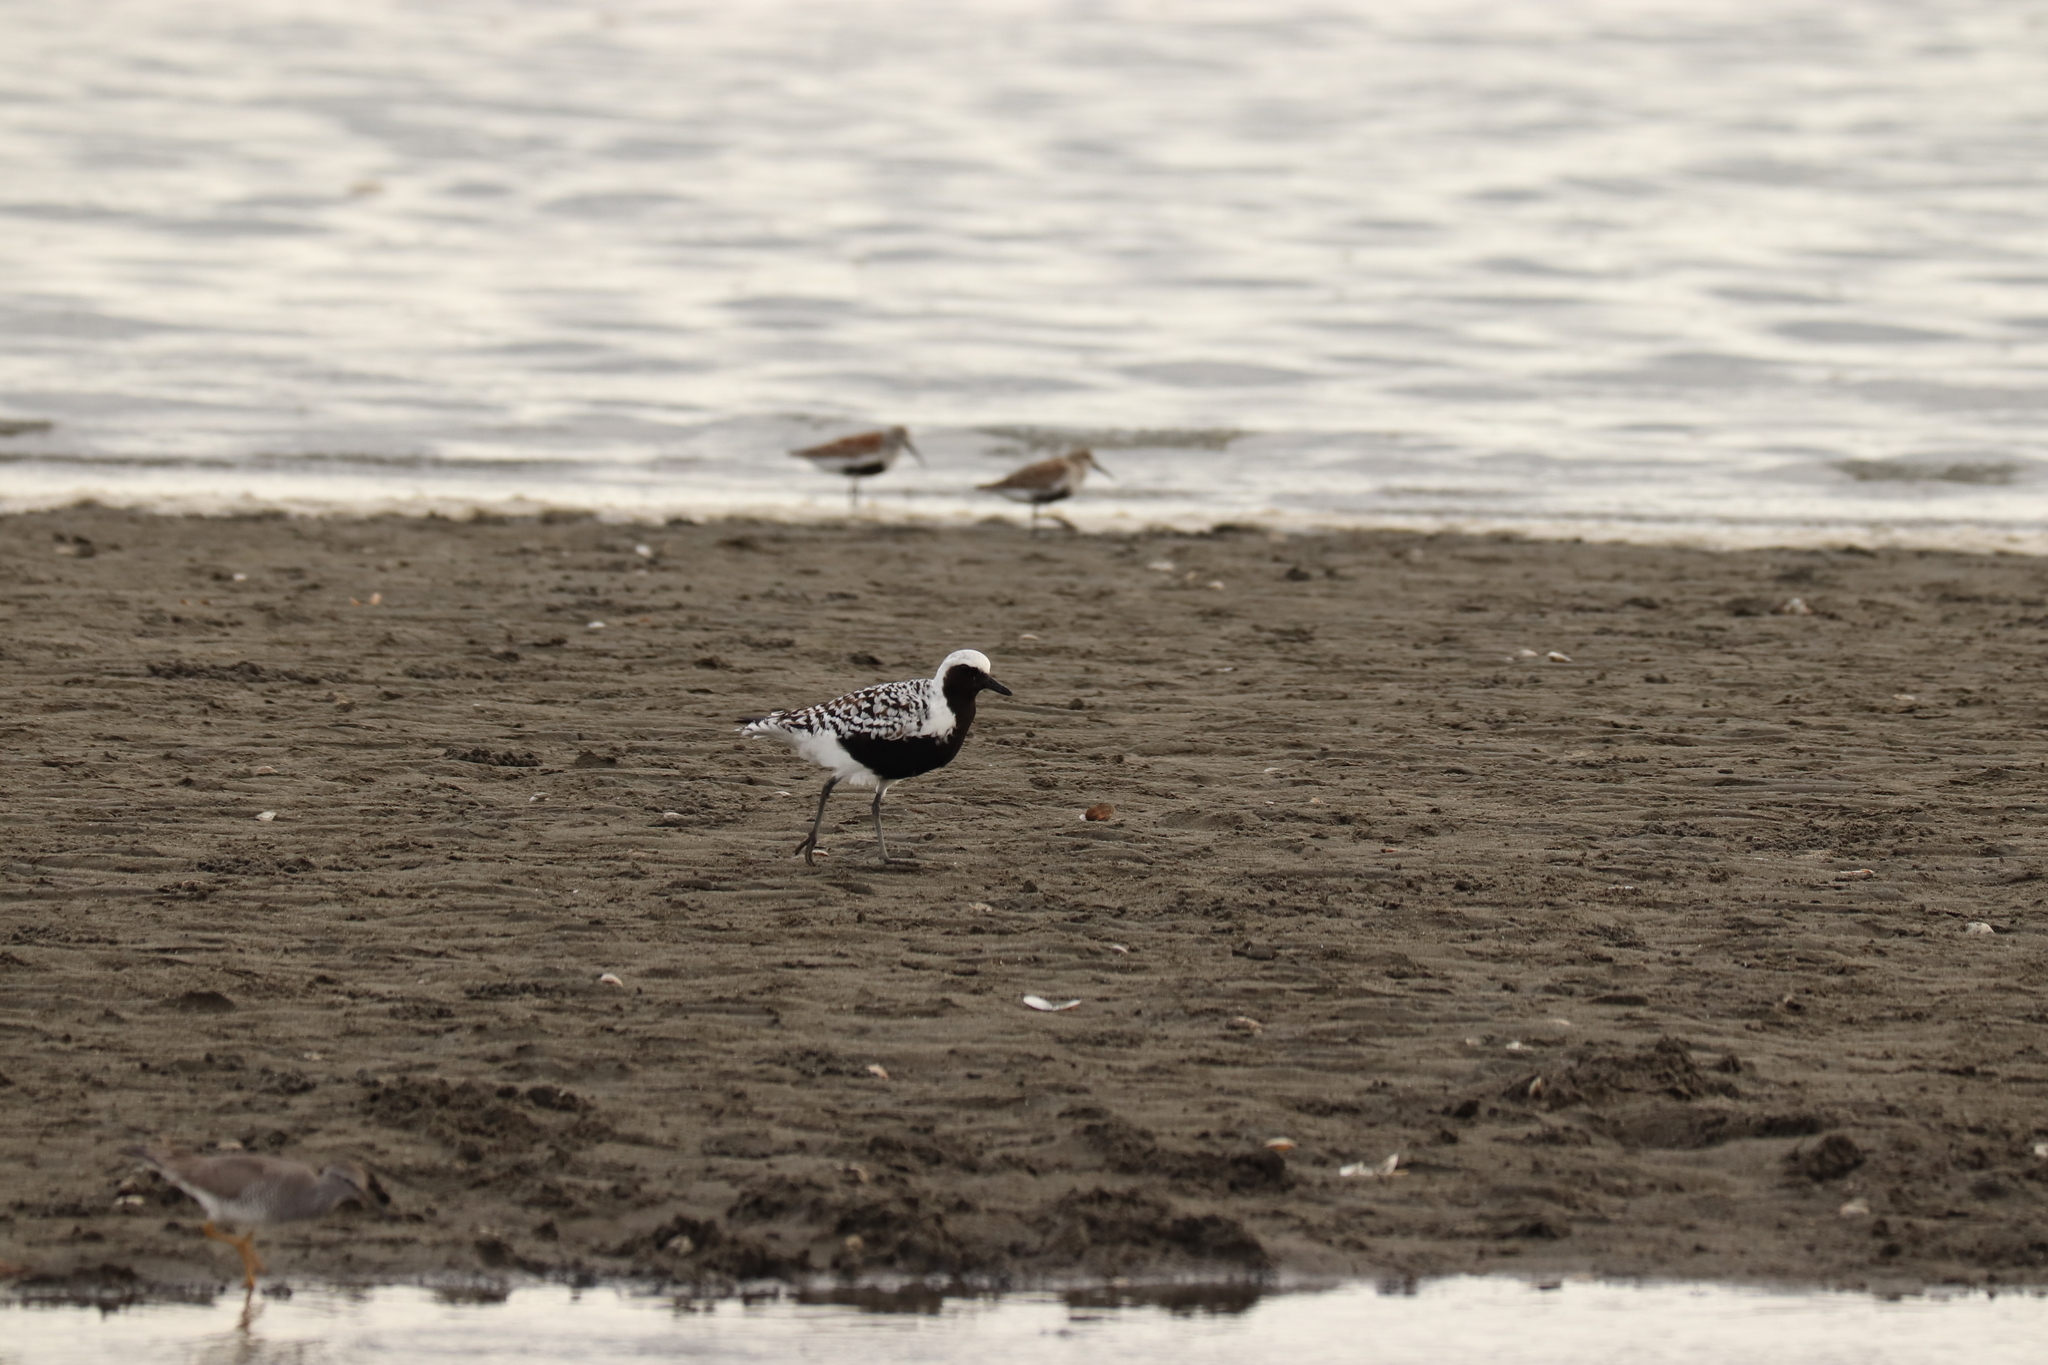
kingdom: Animalia
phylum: Chordata
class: Aves
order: Charadriiformes
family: Charadriidae
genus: Pluvialis
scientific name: Pluvialis squatarola
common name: Grey plover
